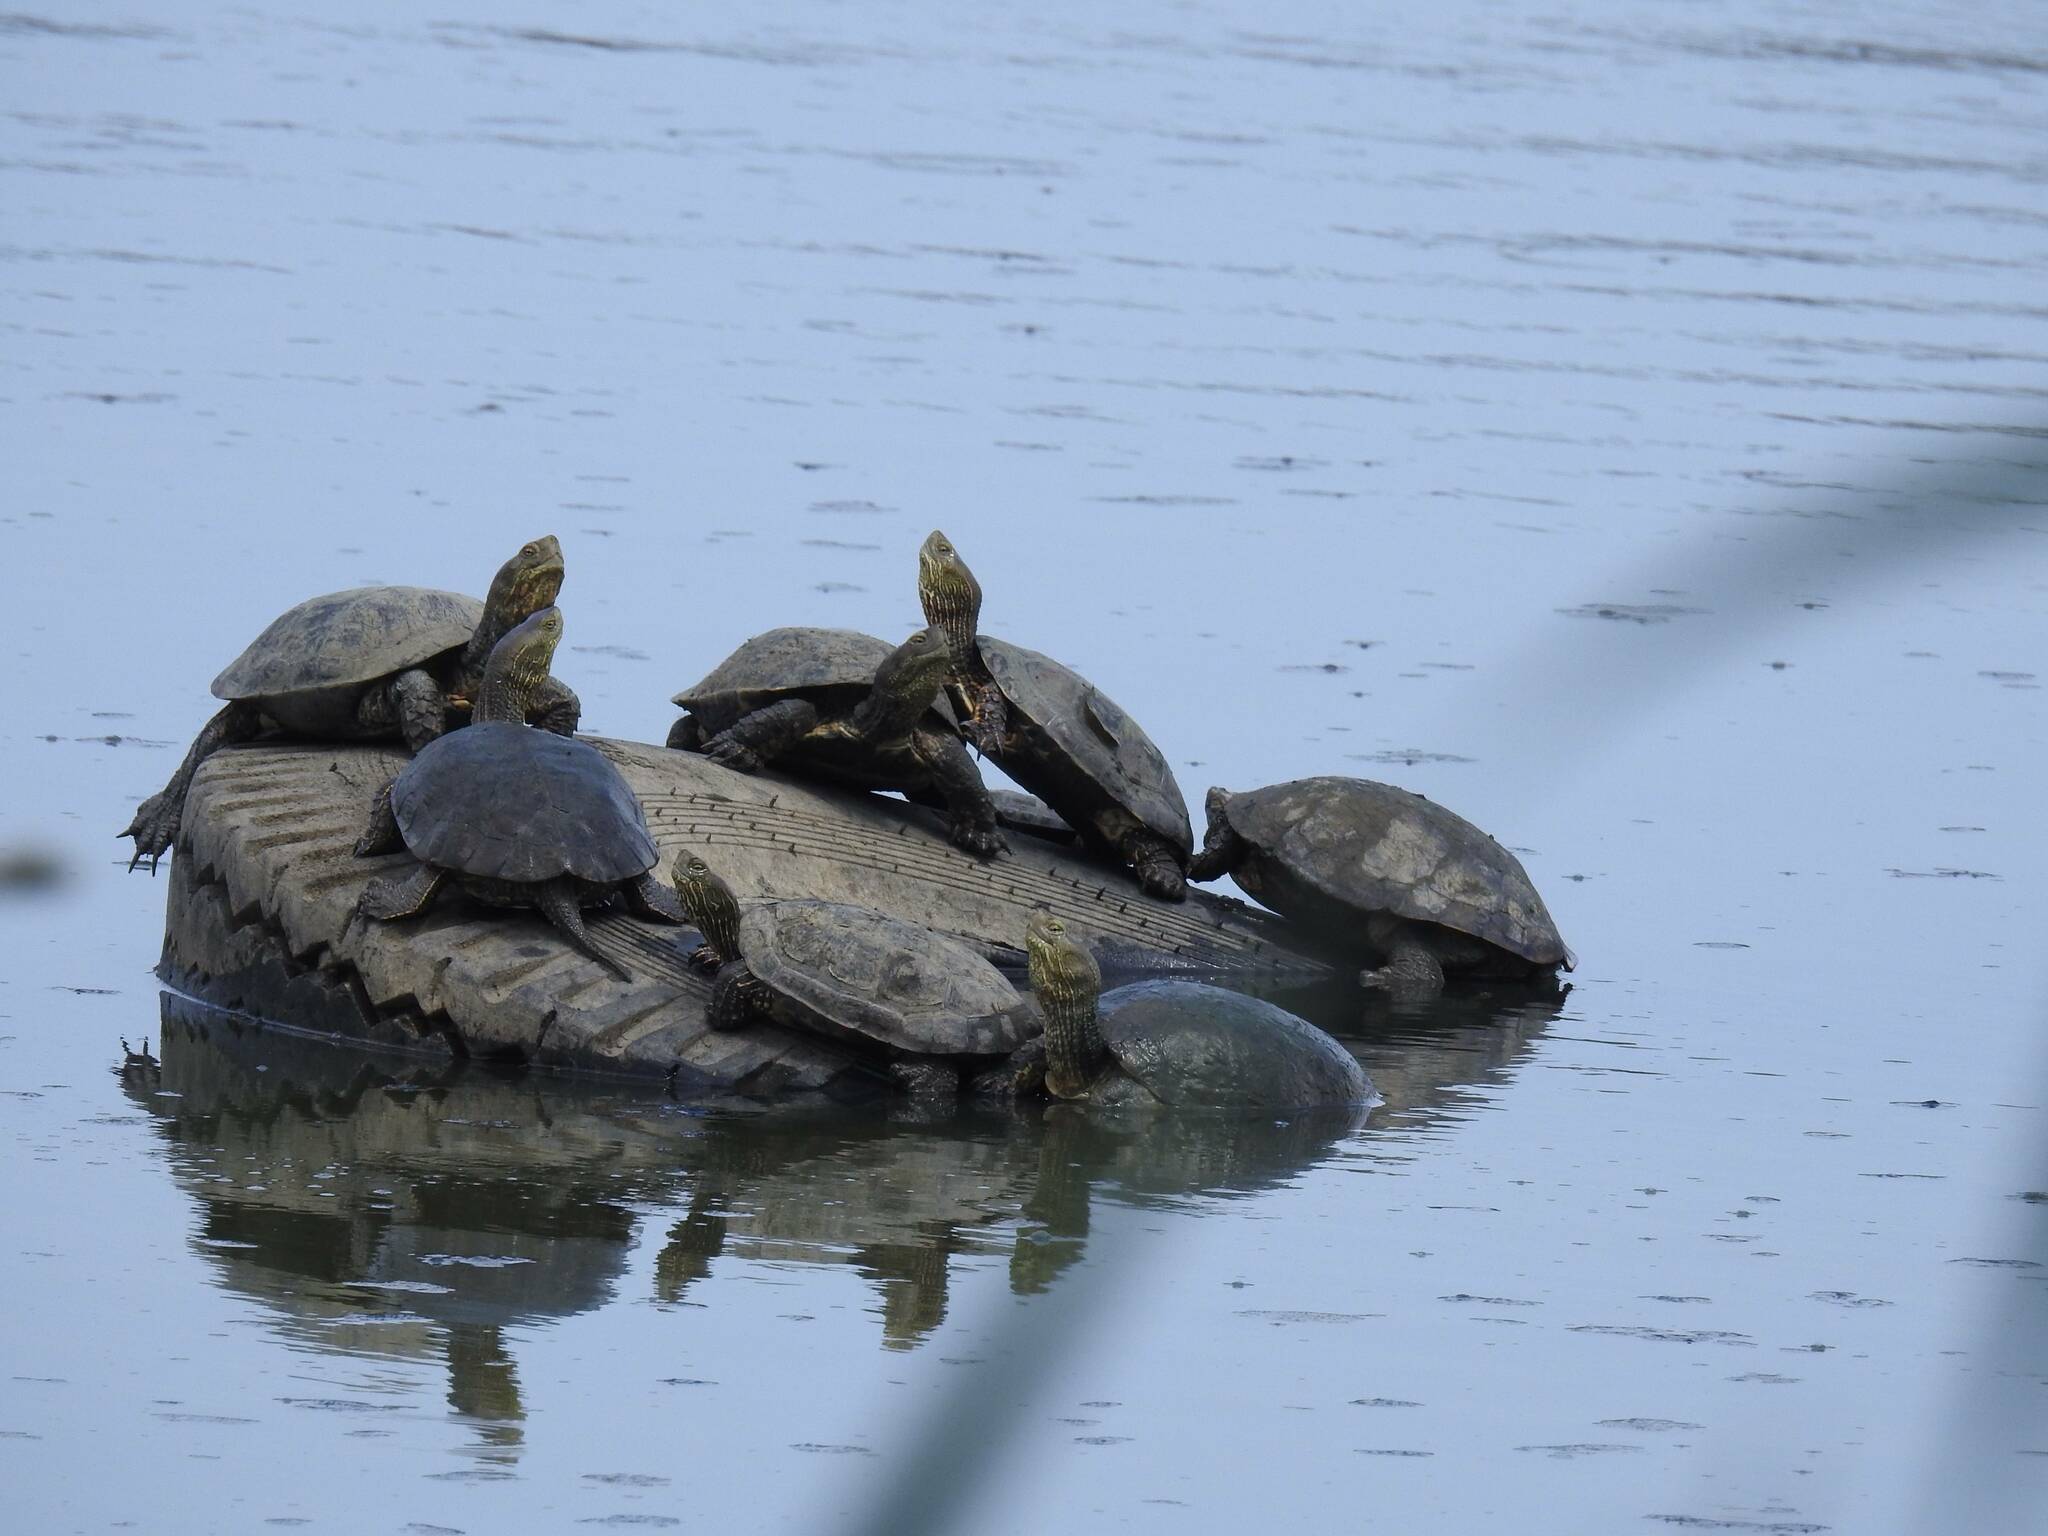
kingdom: Animalia
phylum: Chordata
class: Testudines
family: Geoemydidae
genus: Mauremys
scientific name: Mauremys leprosa
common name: Mediterranean pond turtle
